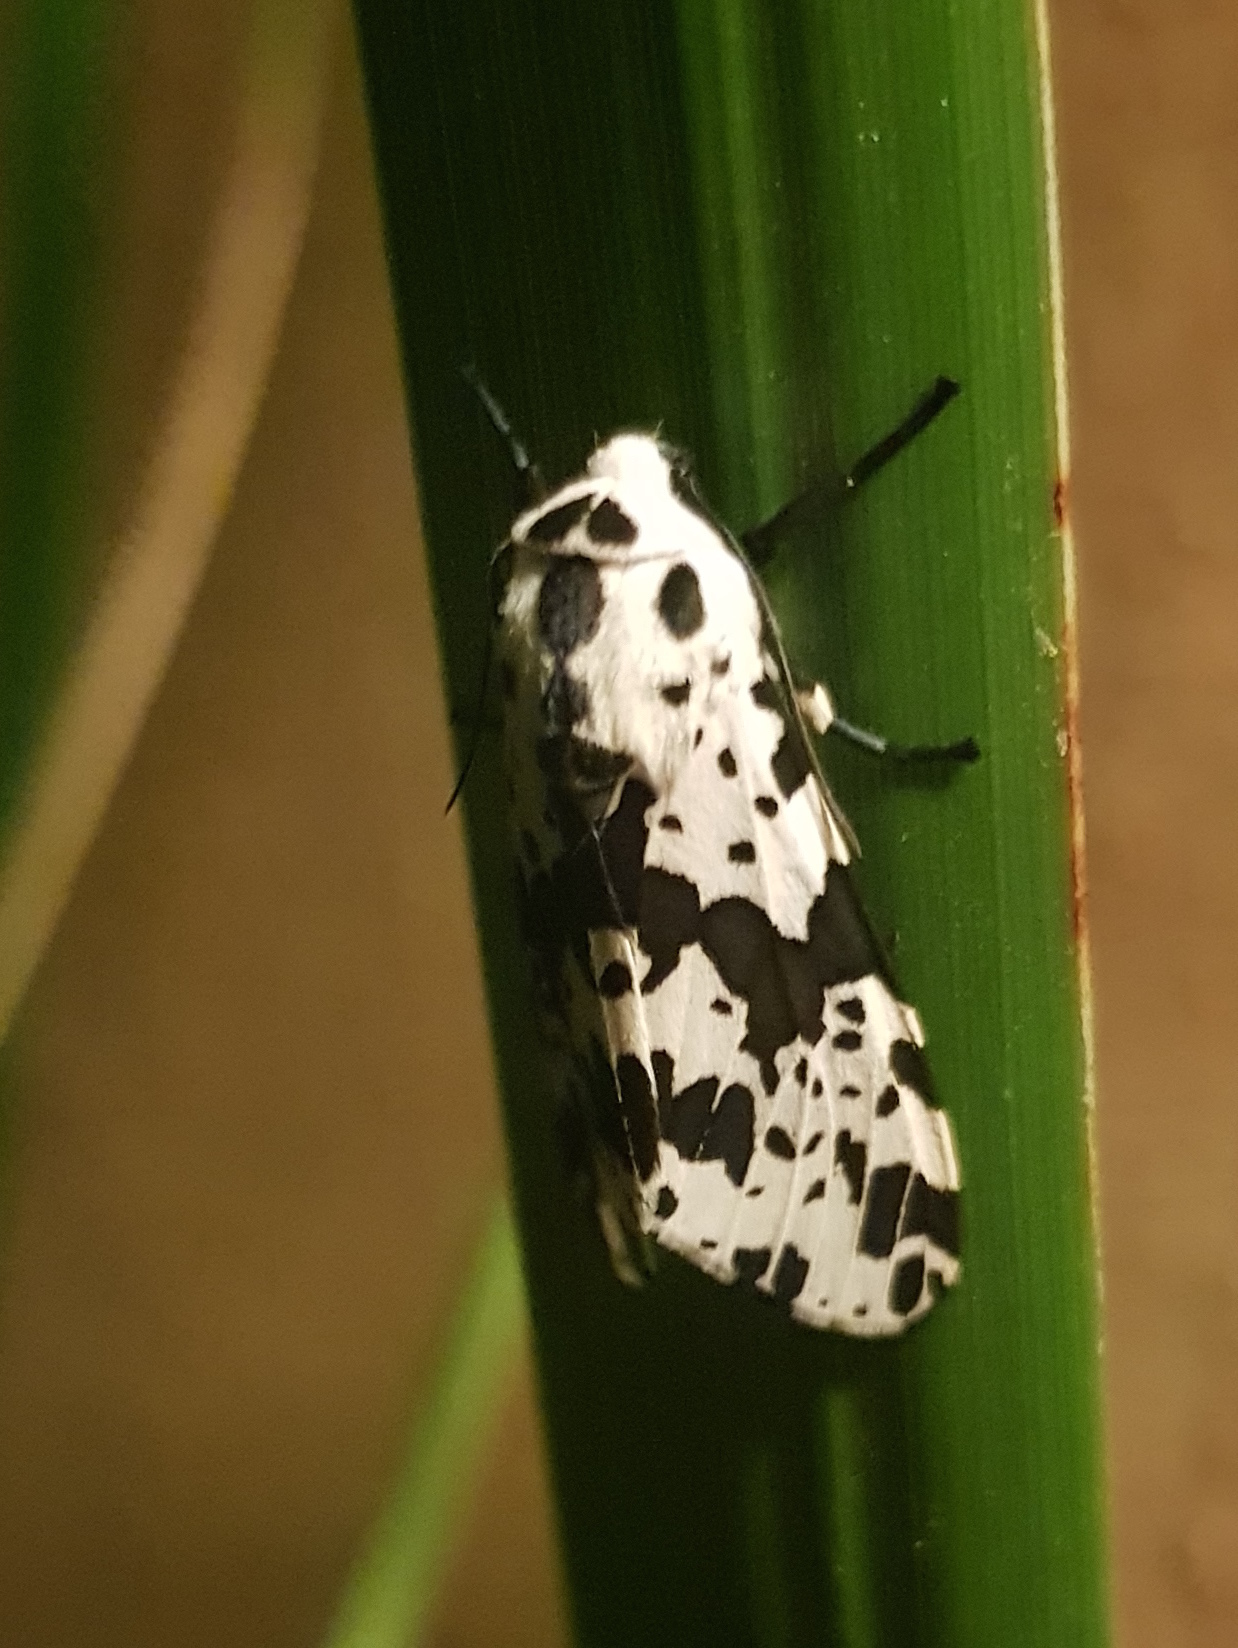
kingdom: Animalia
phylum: Arthropoda
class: Insecta
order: Lepidoptera
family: Erebidae
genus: Hypercompe
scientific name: Hypercompe andromela
